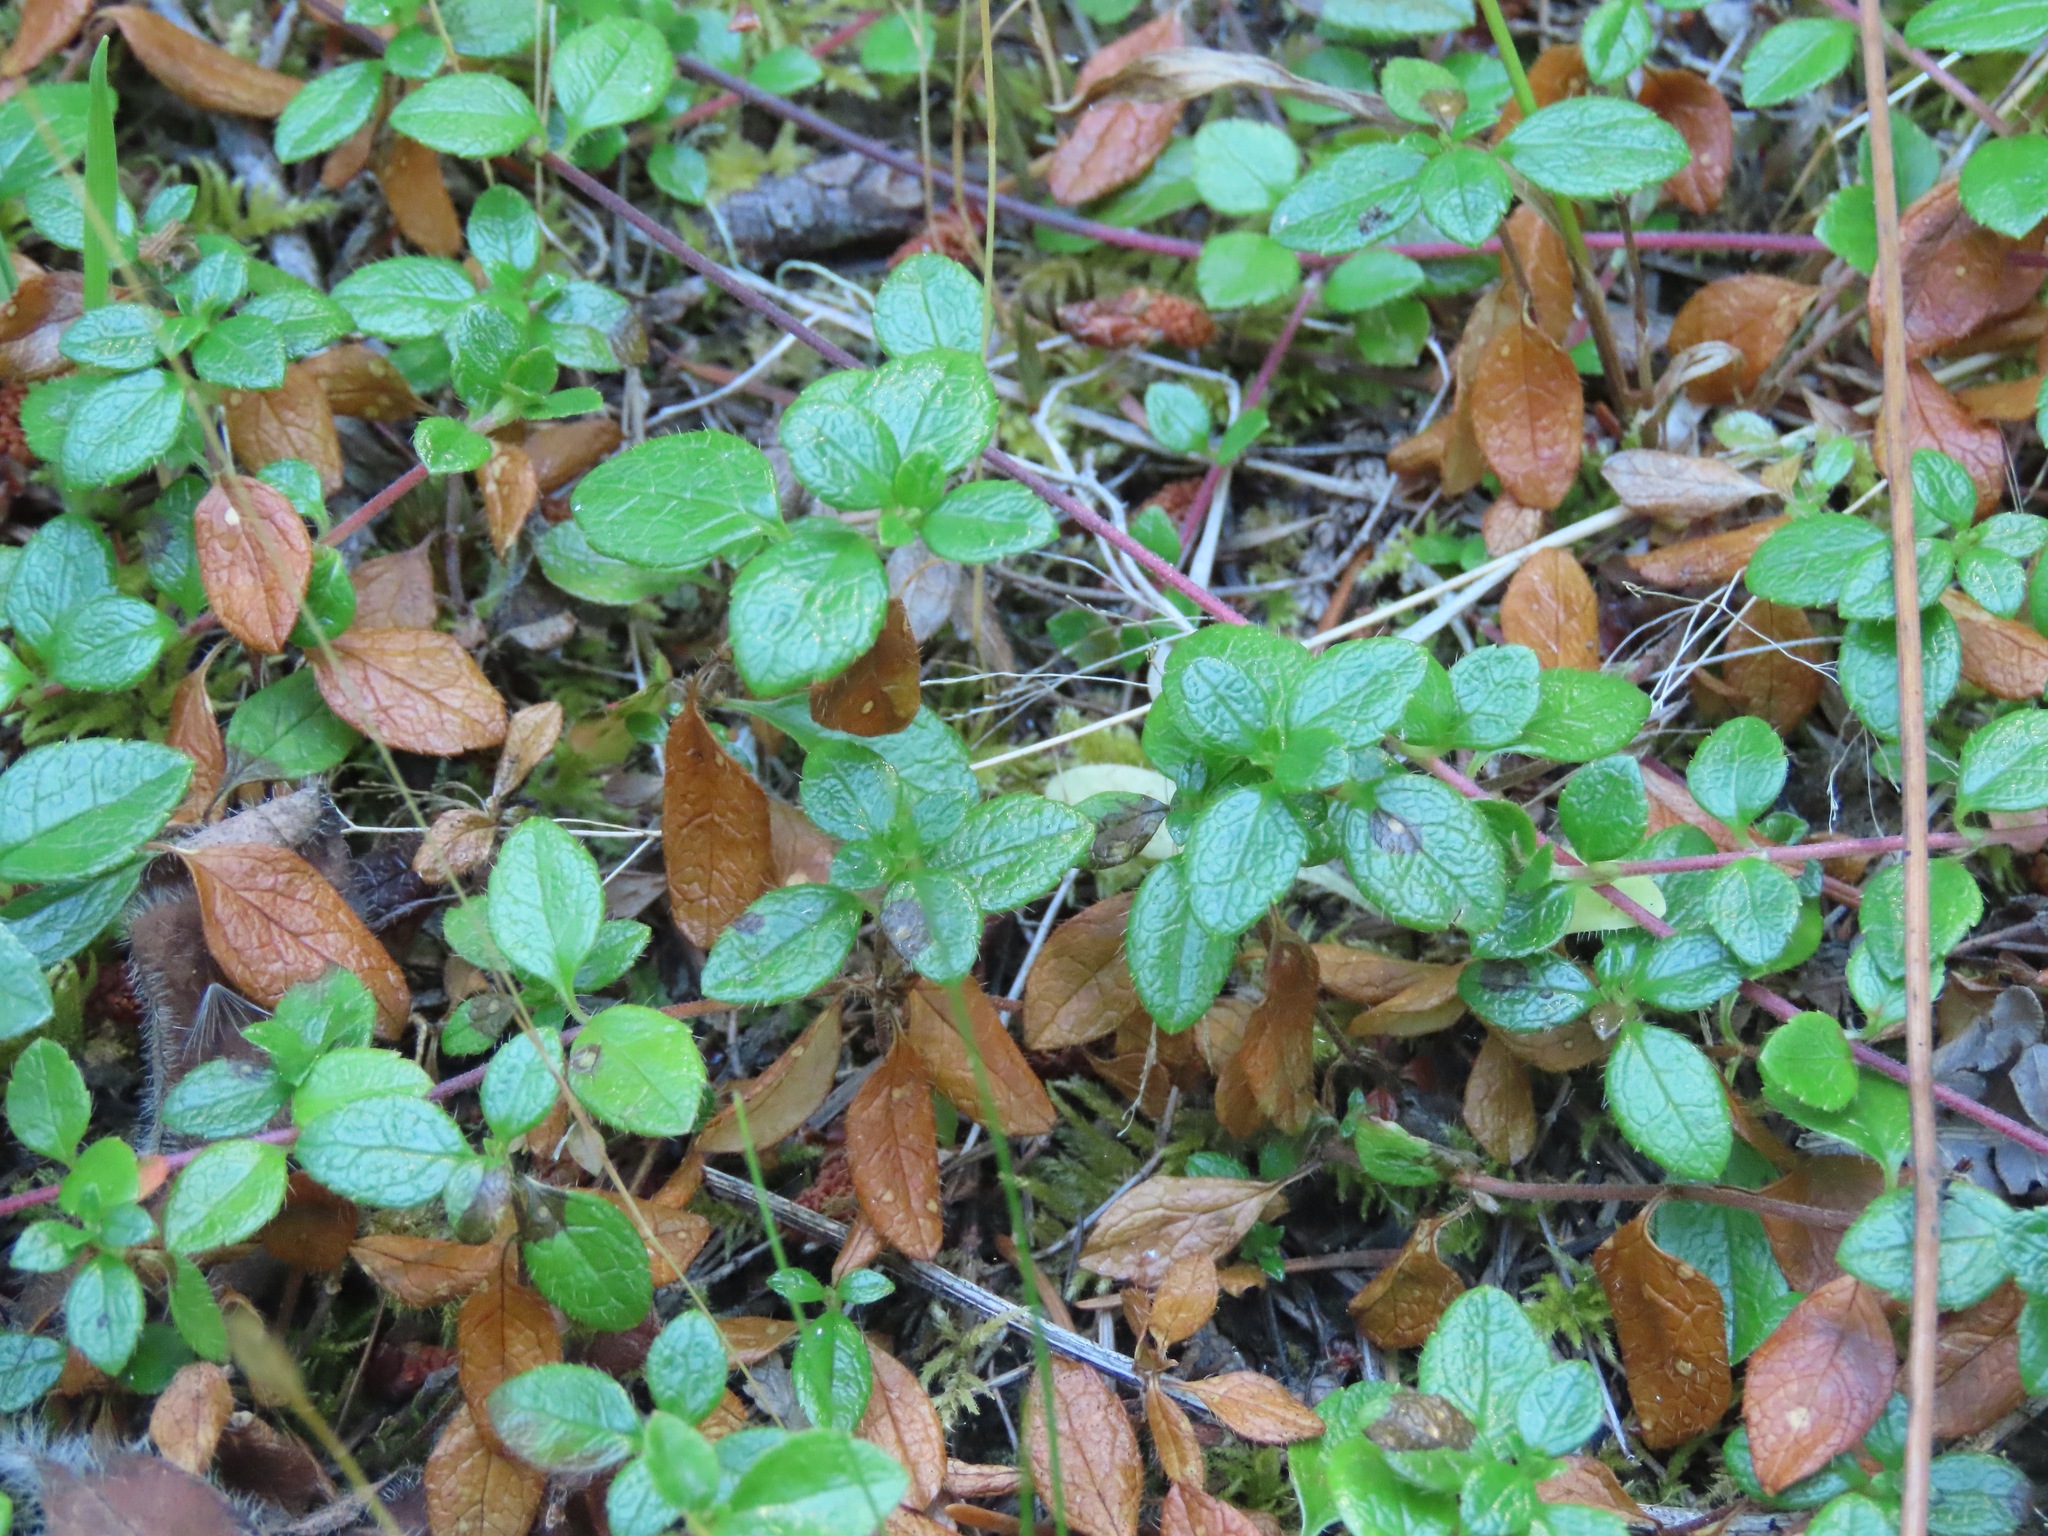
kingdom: Plantae
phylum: Tracheophyta
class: Magnoliopsida
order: Dipsacales
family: Caprifoliaceae
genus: Linnaea
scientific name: Linnaea borealis
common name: Twinflower
